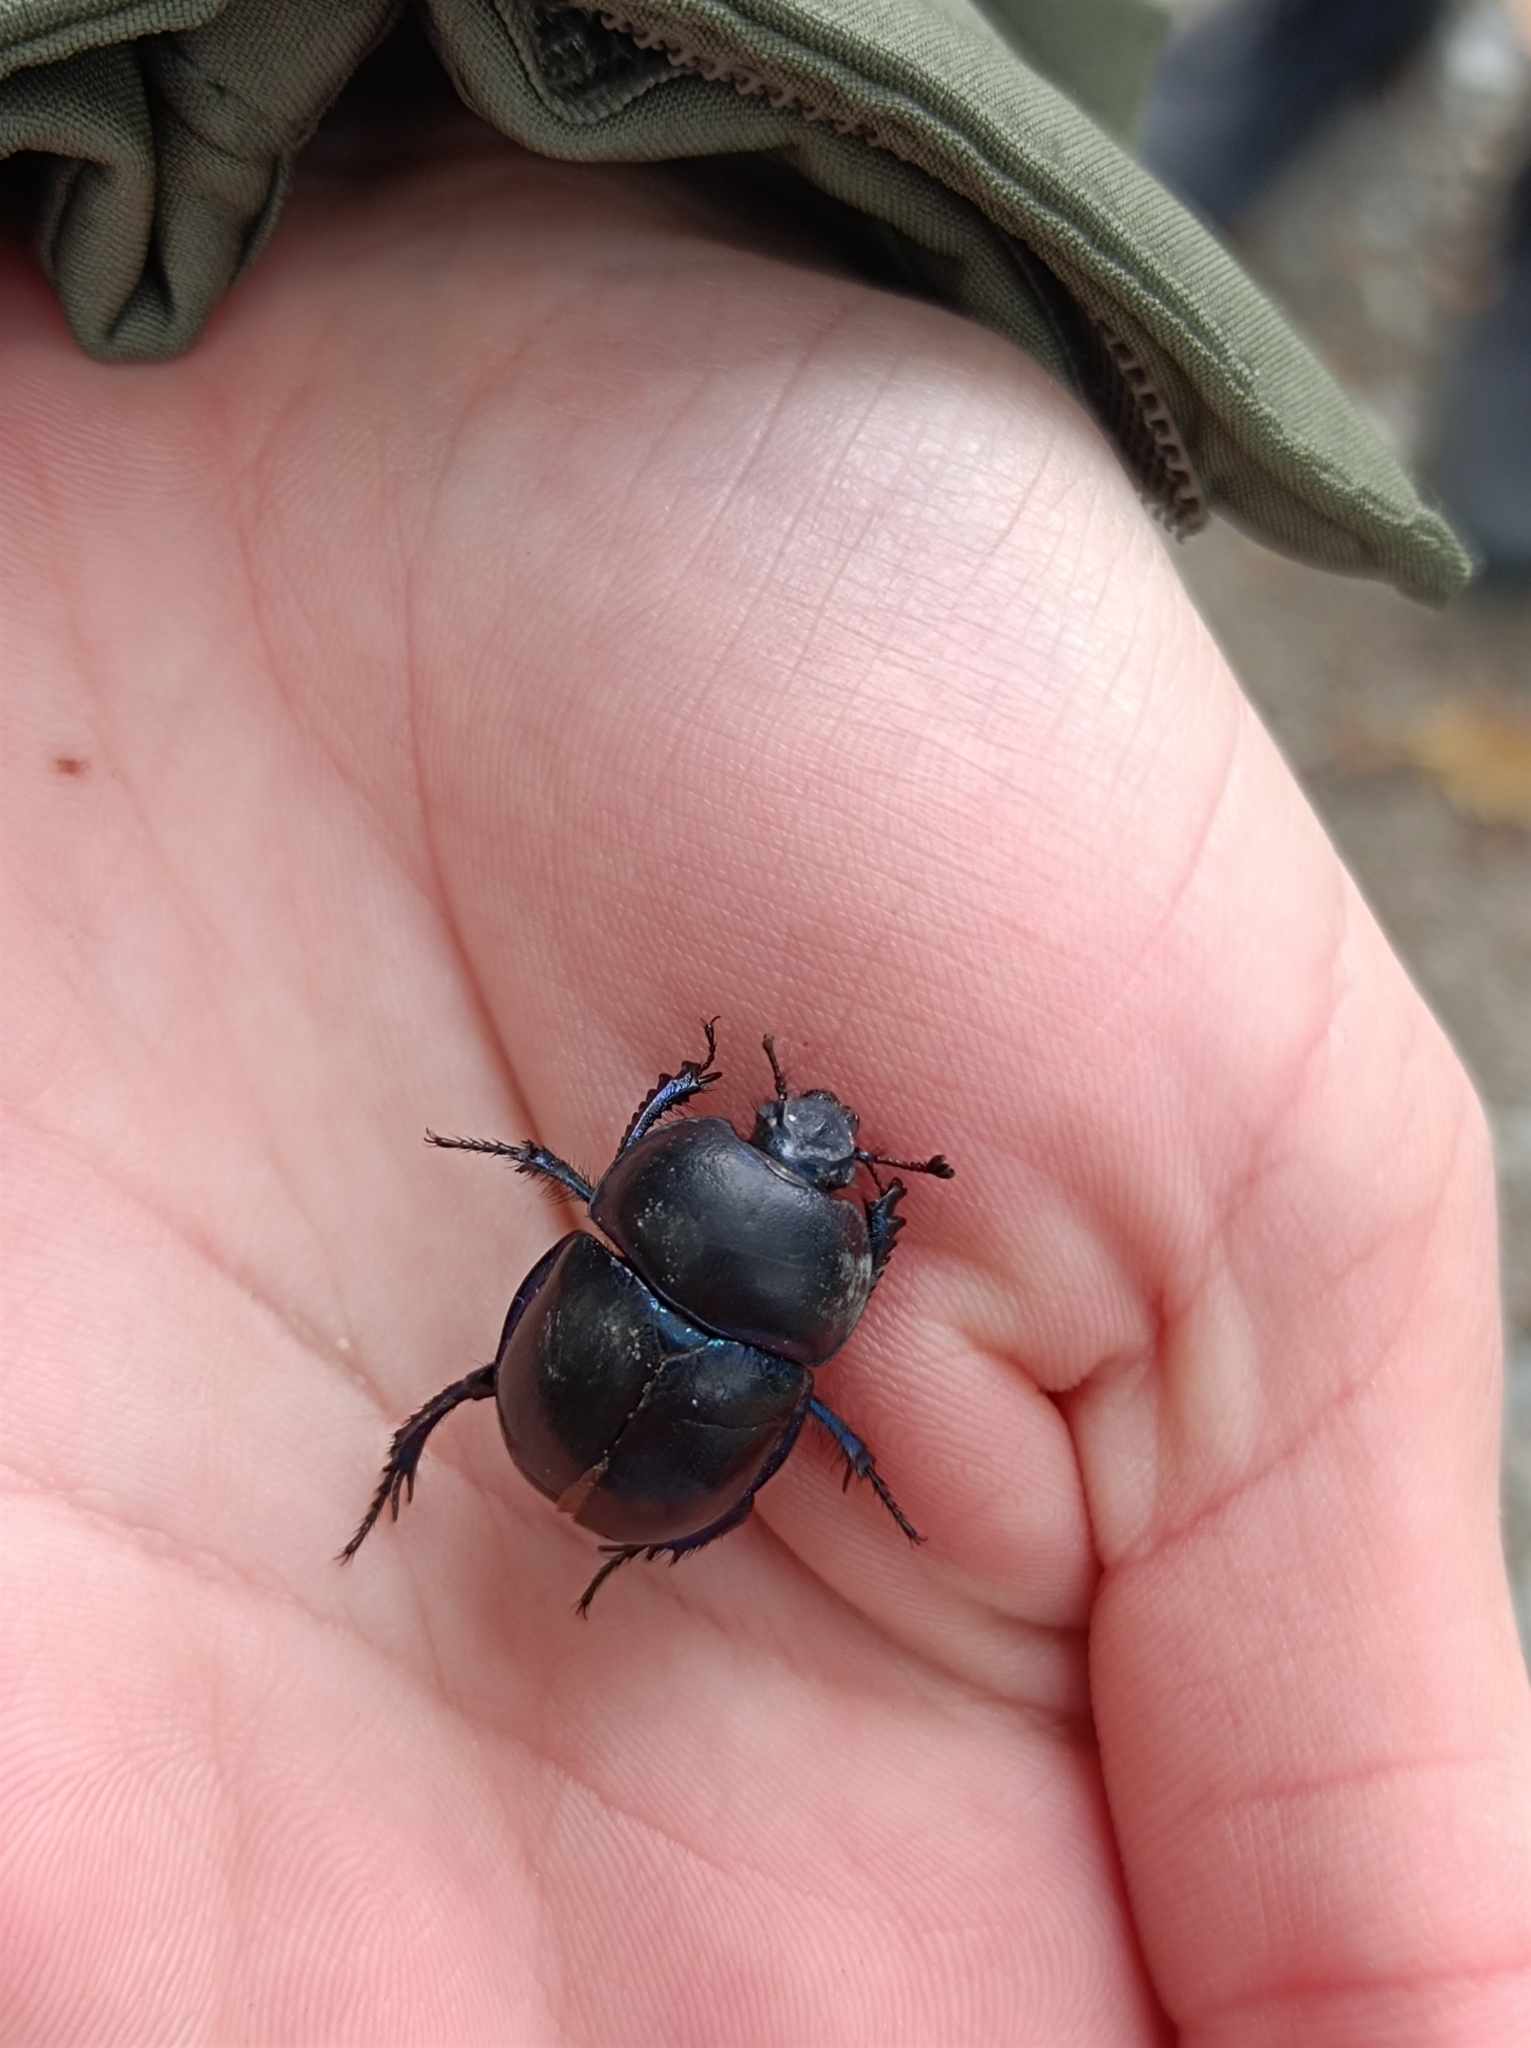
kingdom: Animalia
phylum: Arthropoda
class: Insecta
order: Coleoptera
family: Geotrupidae
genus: Trypocopris
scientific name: Trypocopris vernalis
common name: Spring dumbledor
